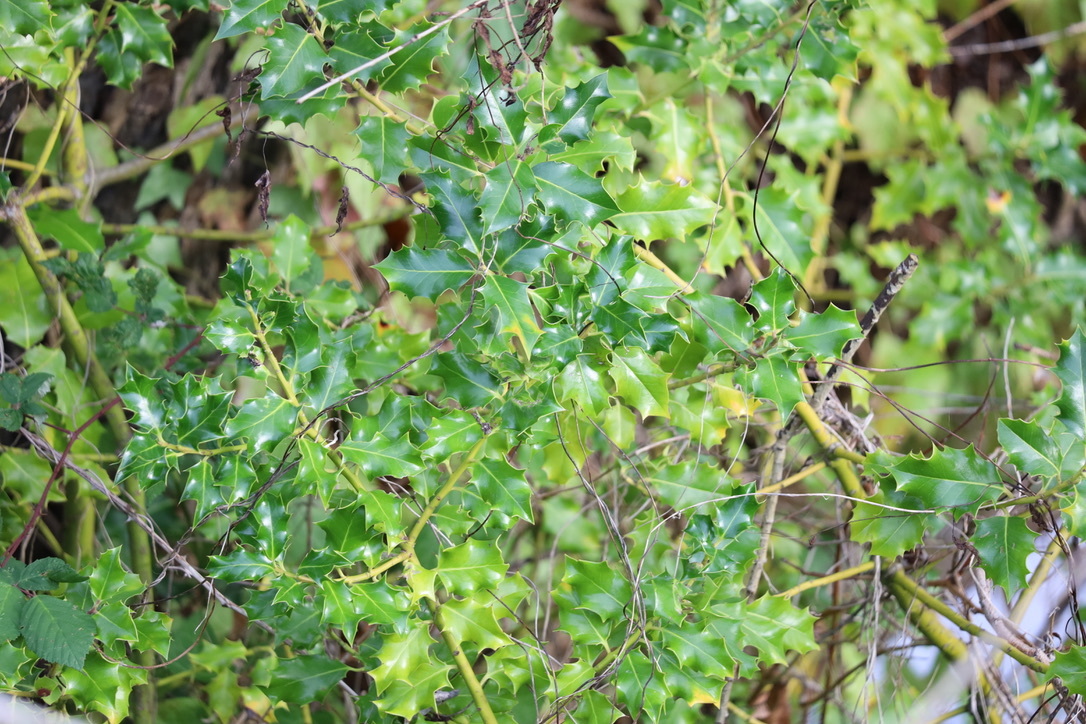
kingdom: Plantae
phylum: Tracheophyta
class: Magnoliopsida
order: Aquifoliales
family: Aquifoliaceae
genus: Ilex
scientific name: Ilex aquifolium
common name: English holly
